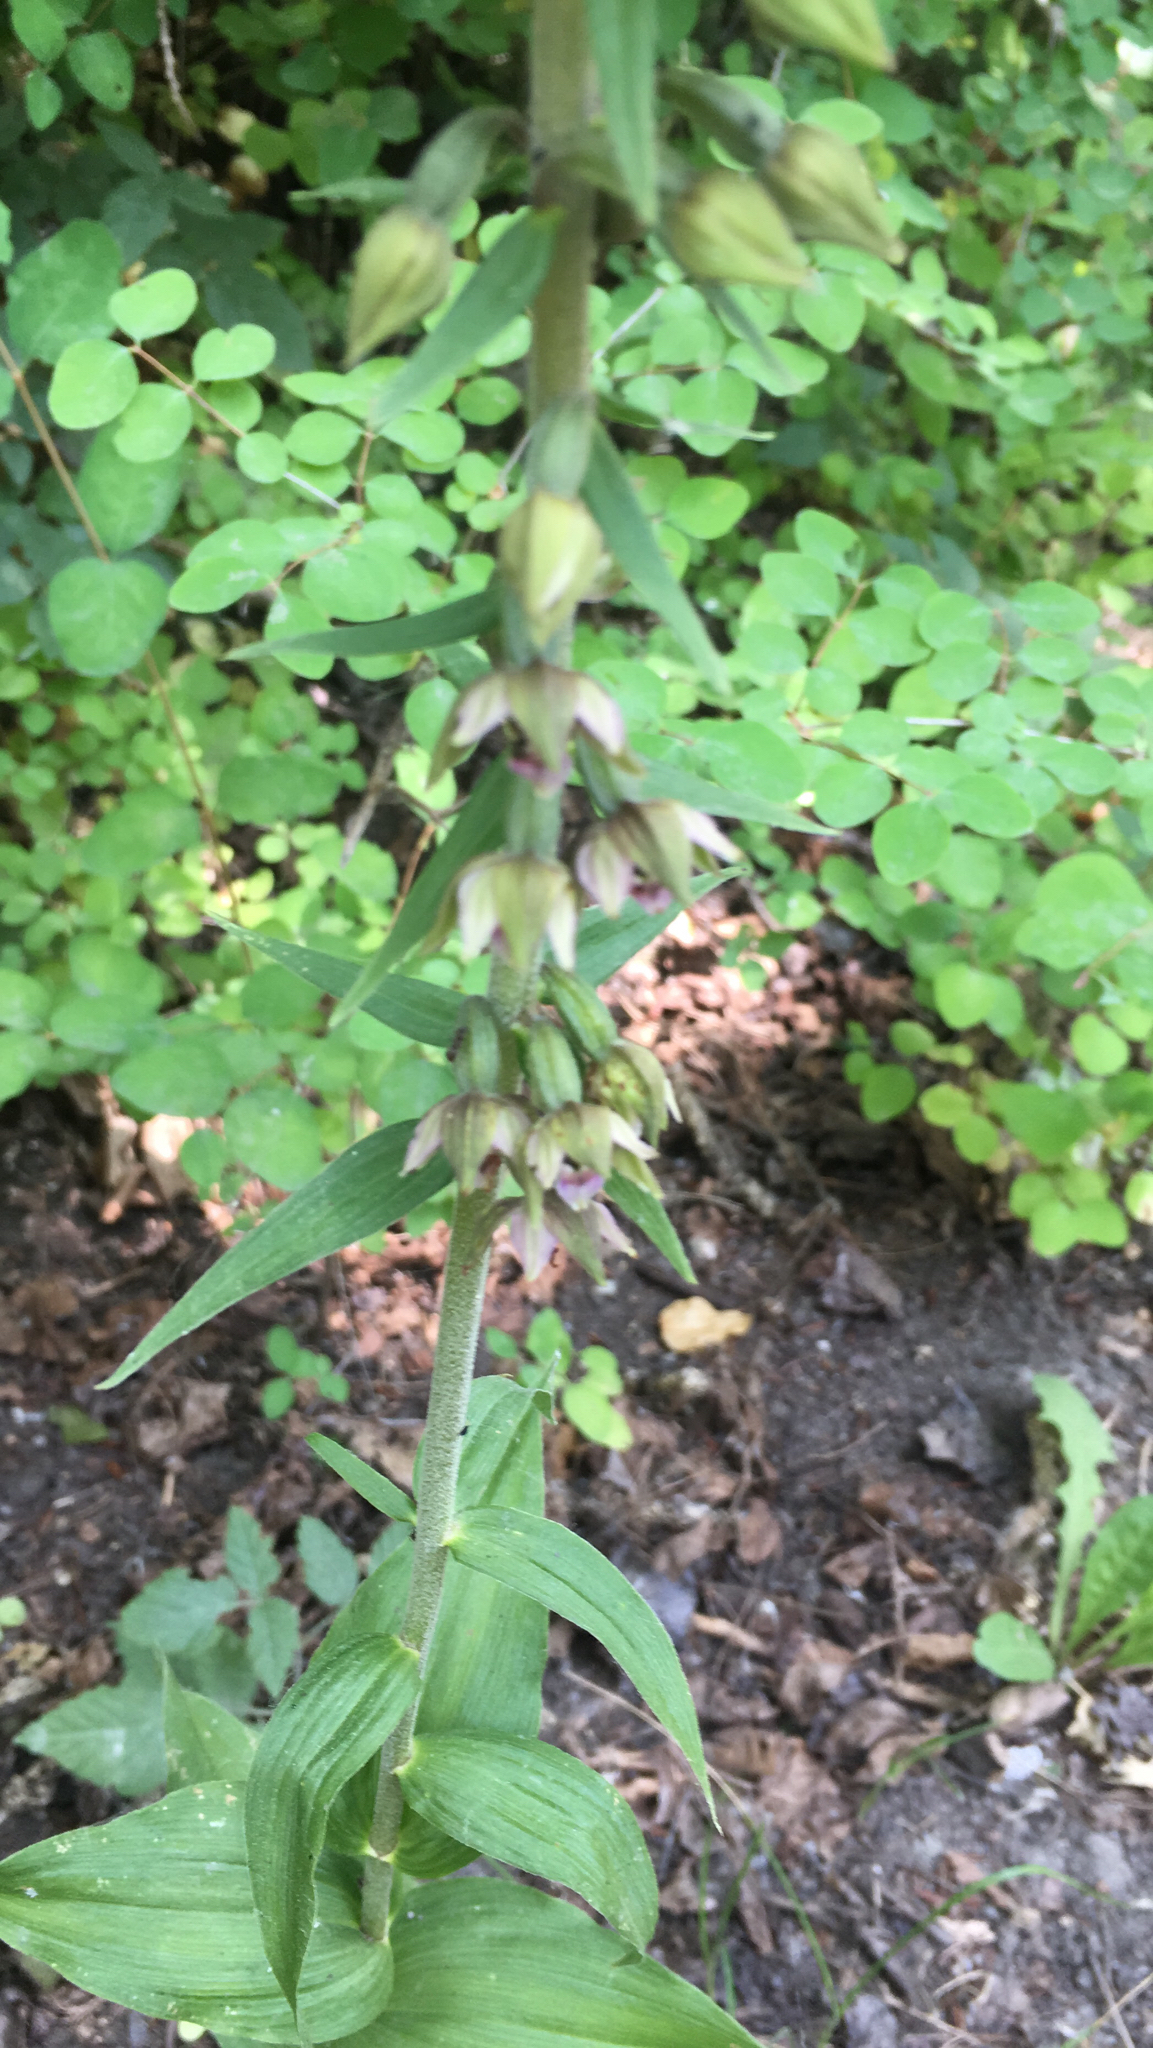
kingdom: Plantae
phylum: Tracheophyta
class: Liliopsida
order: Asparagales
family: Orchidaceae
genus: Epipactis
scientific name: Epipactis helleborine
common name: Broad-leaved helleborine
